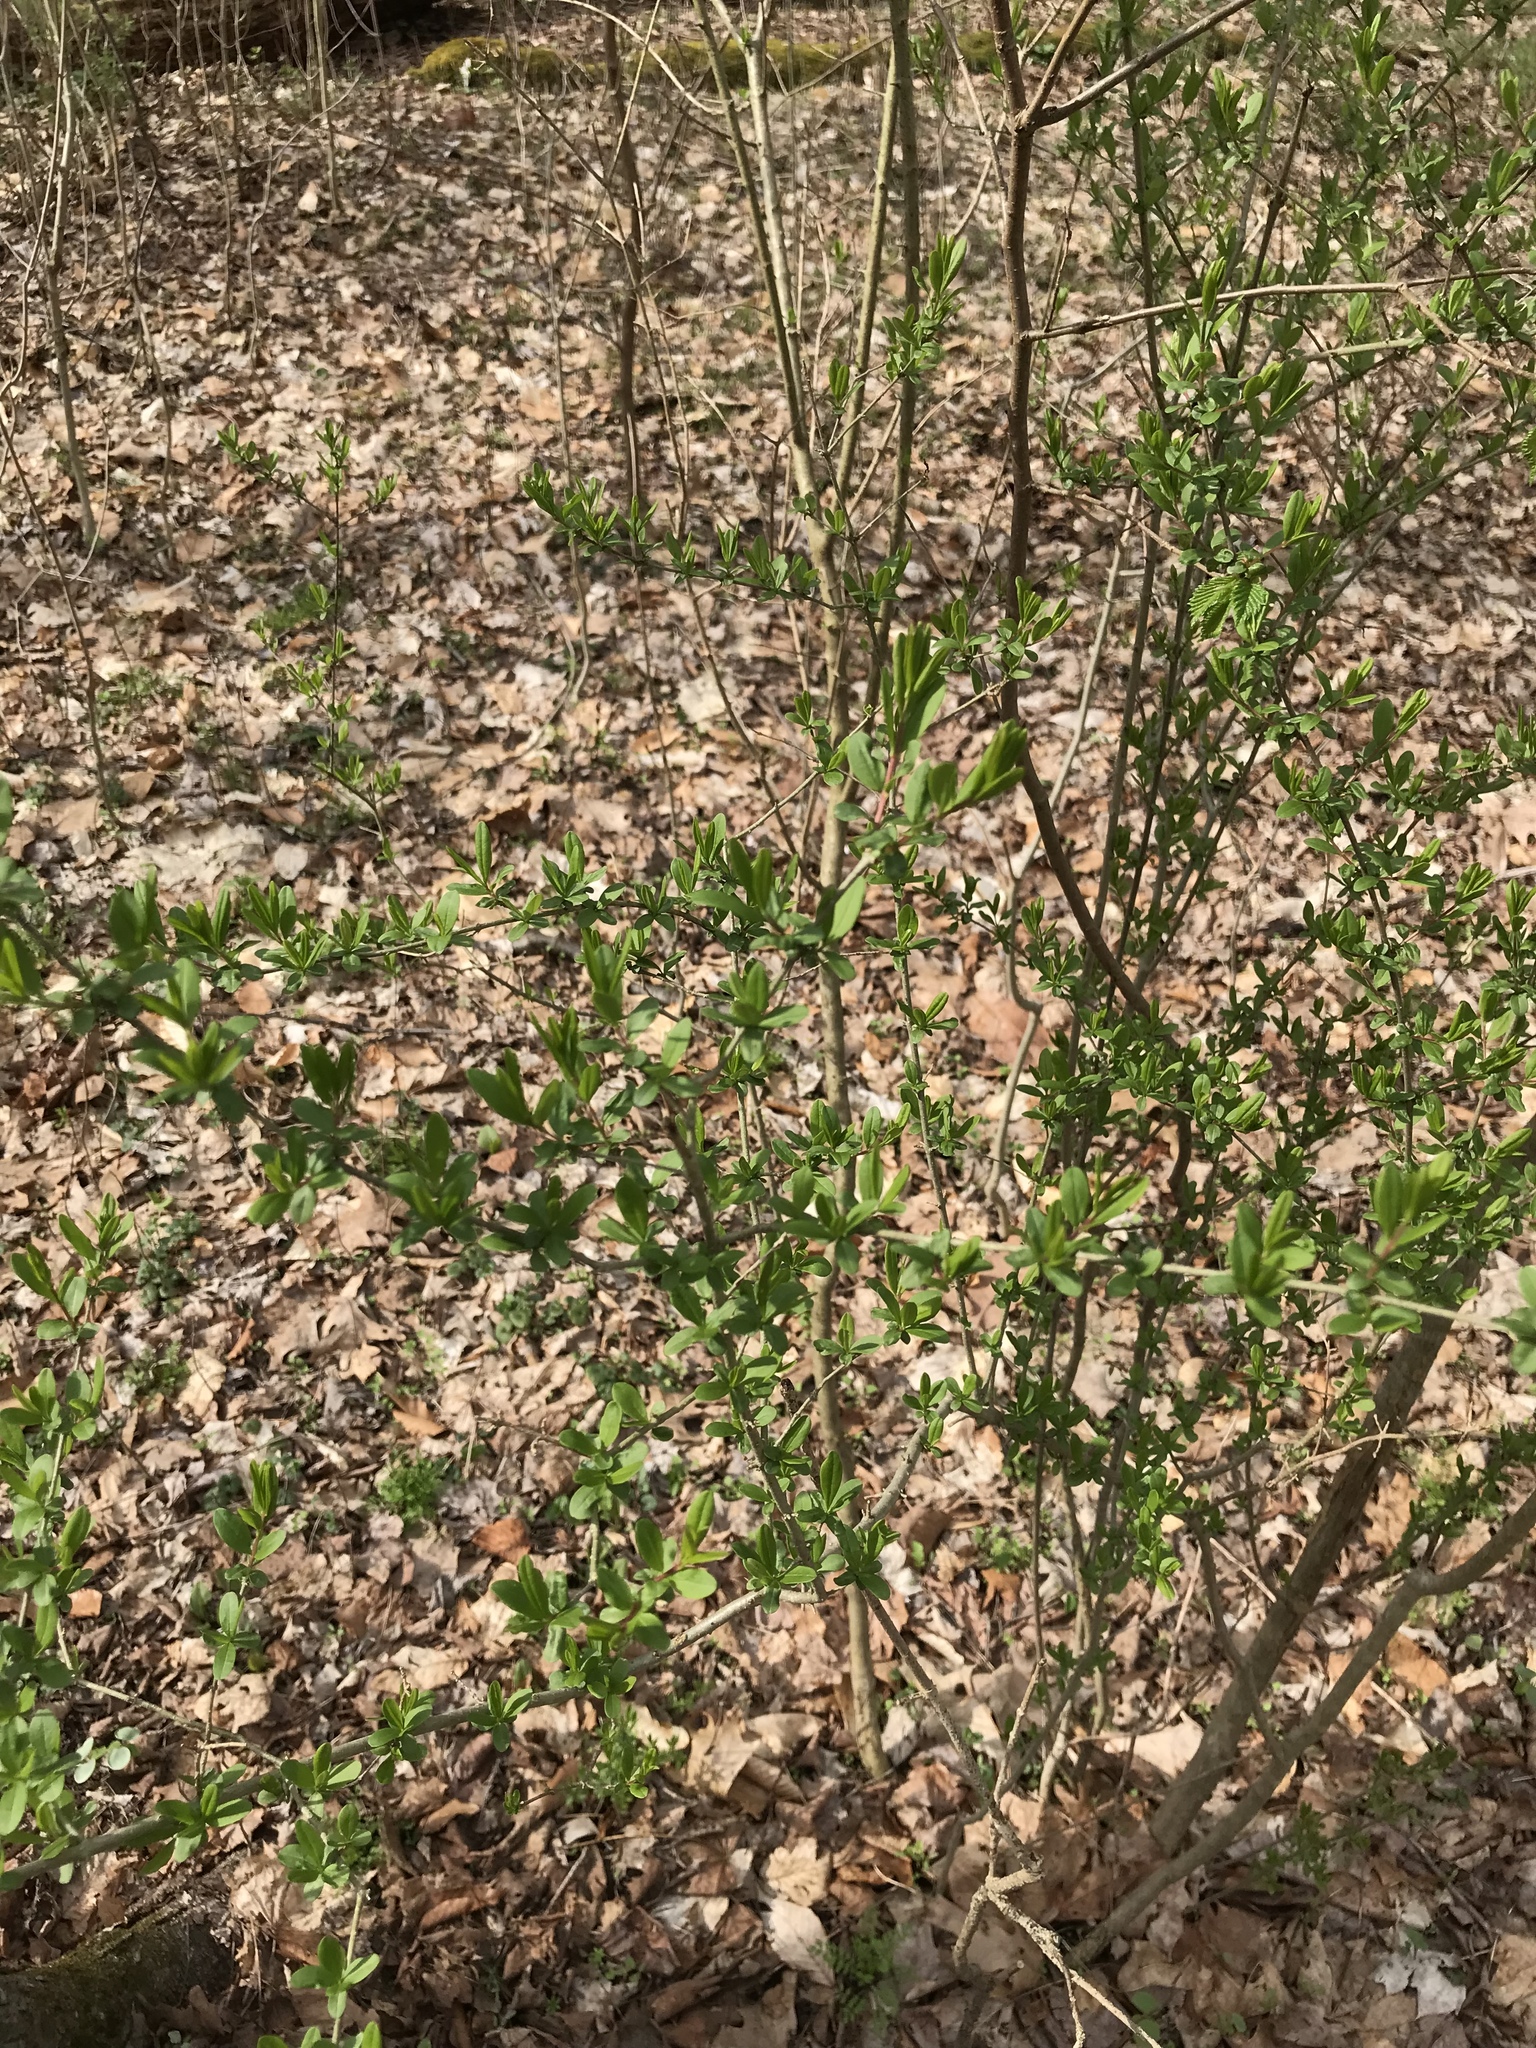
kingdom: Plantae
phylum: Tracheophyta
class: Magnoliopsida
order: Lamiales
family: Oleaceae
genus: Ligustrum
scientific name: Ligustrum obtusifolium
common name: Border privet
